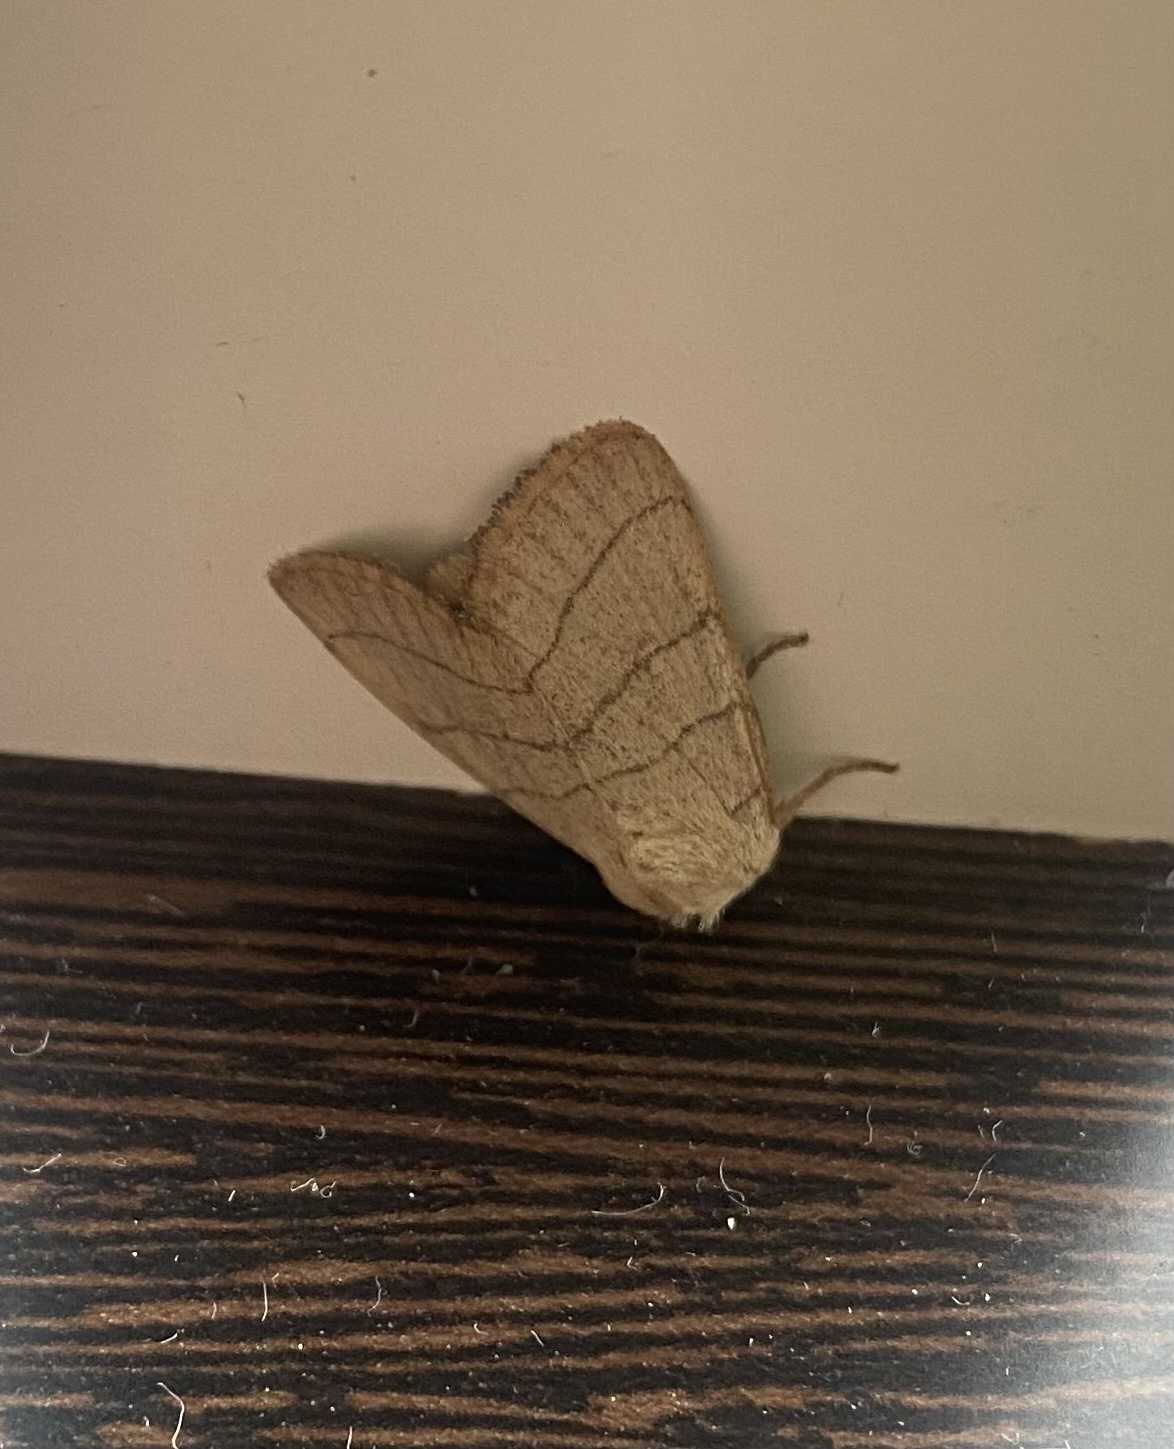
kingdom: Animalia
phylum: Arthropoda
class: Insecta
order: Lepidoptera
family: Noctuidae
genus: Charanyca
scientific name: Charanyca trigrammica
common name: Treble lines
